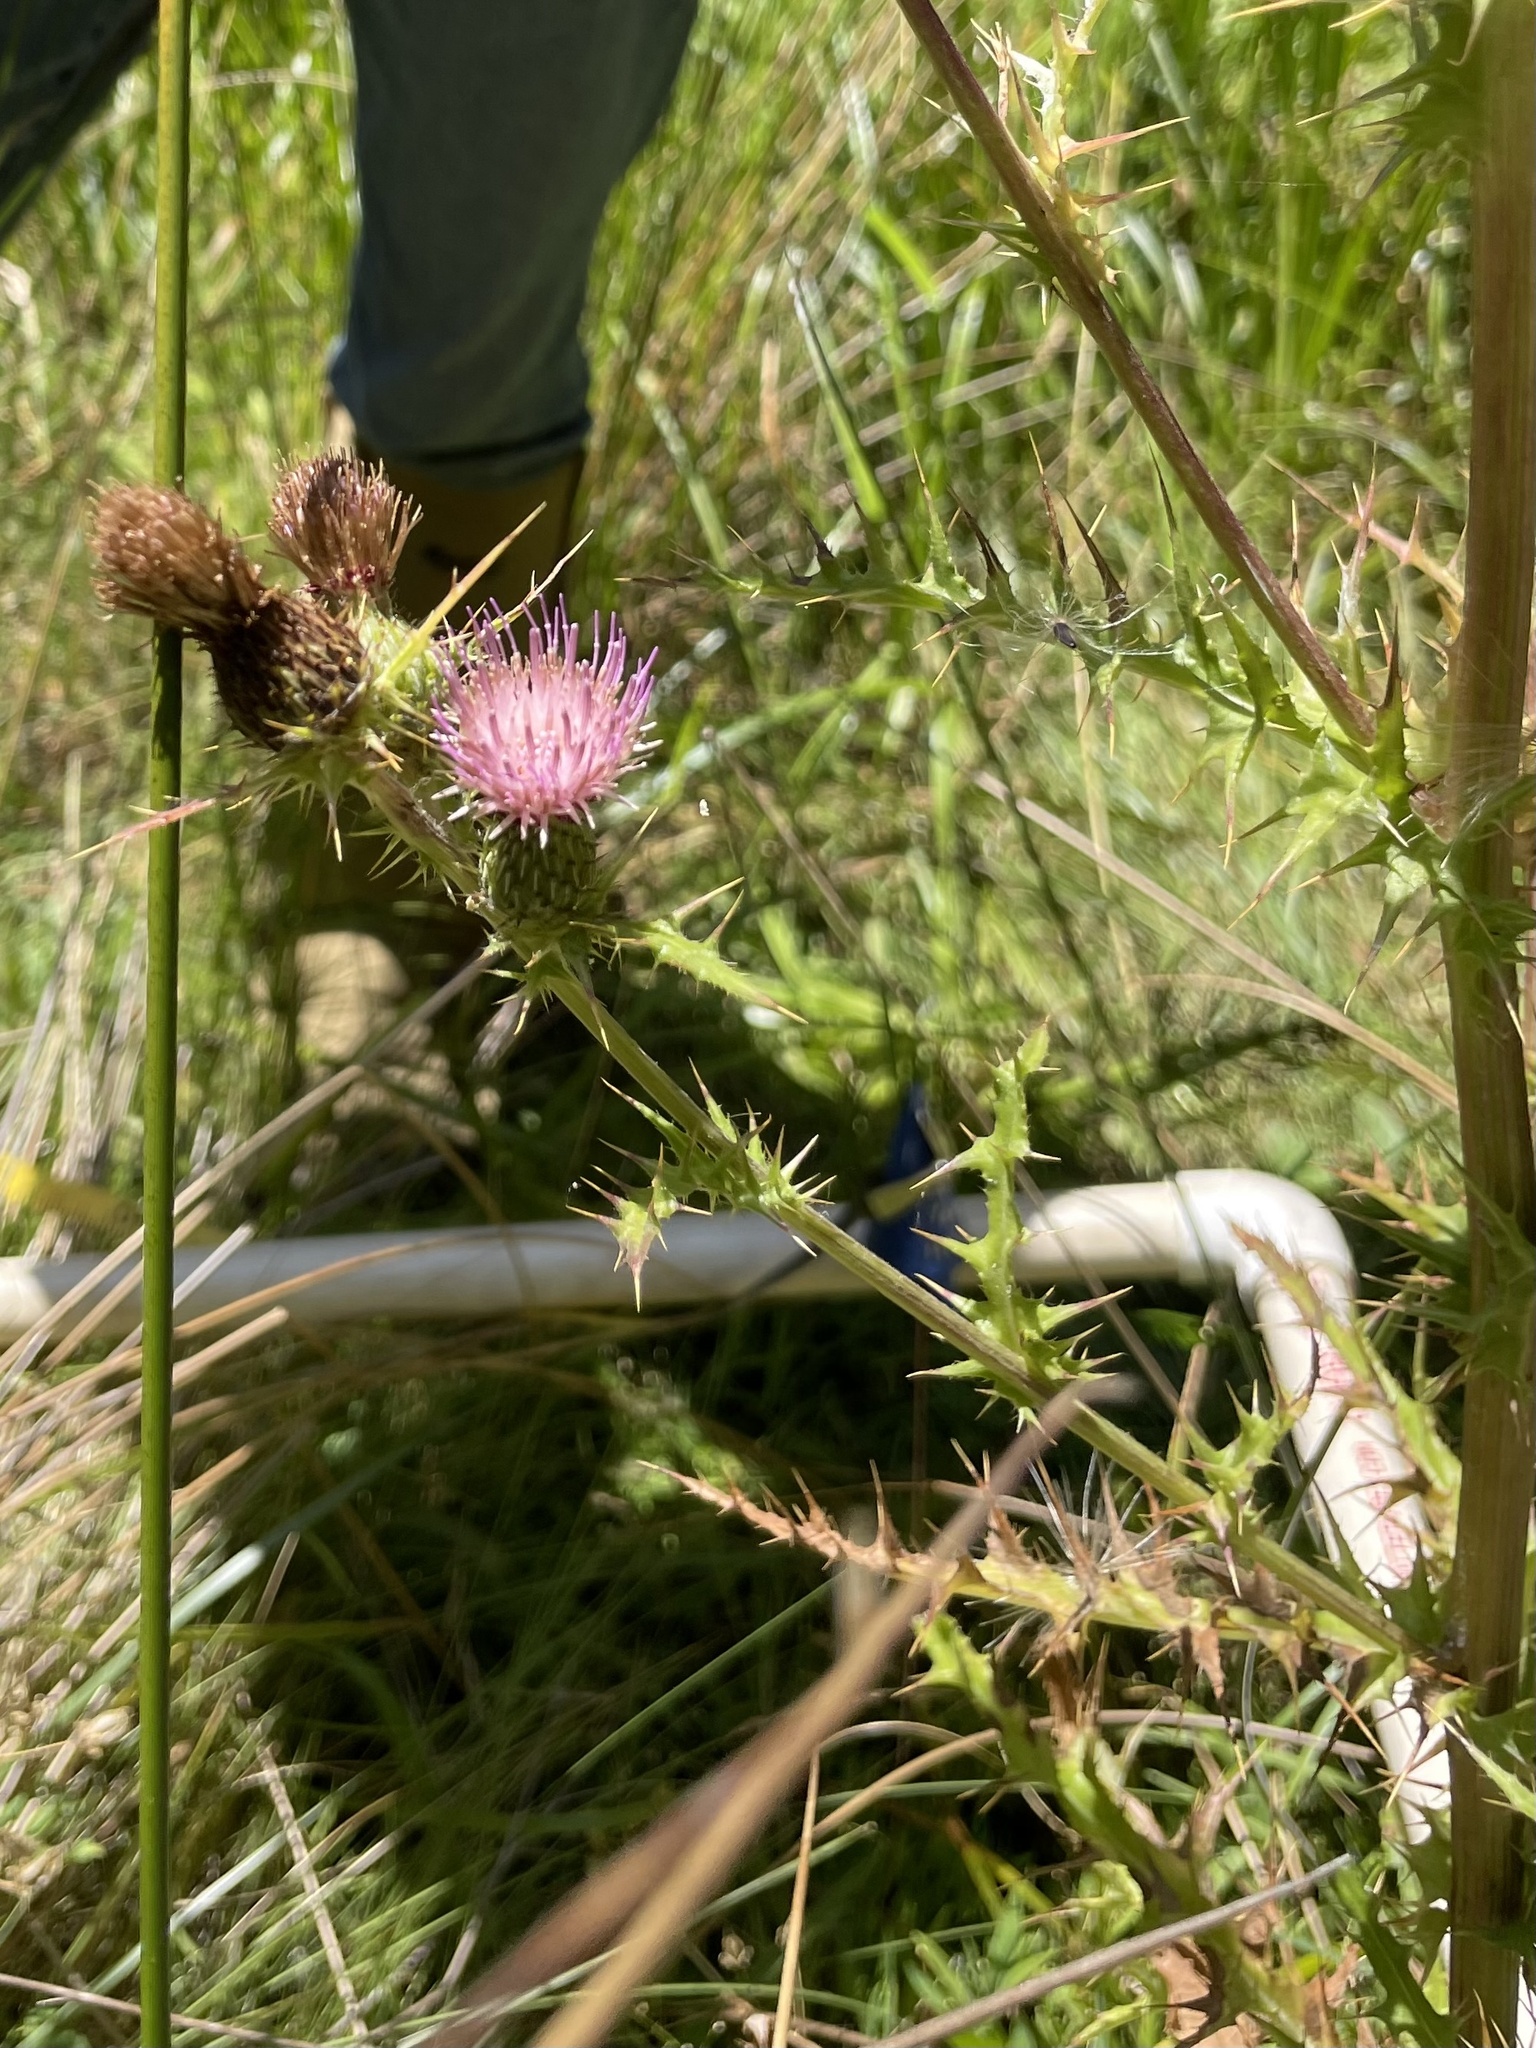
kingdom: Plantae
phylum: Tracheophyta
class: Magnoliopsida
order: Asterales
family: Asteraceae
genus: Cirsium
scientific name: Cirsium hydrophilum
